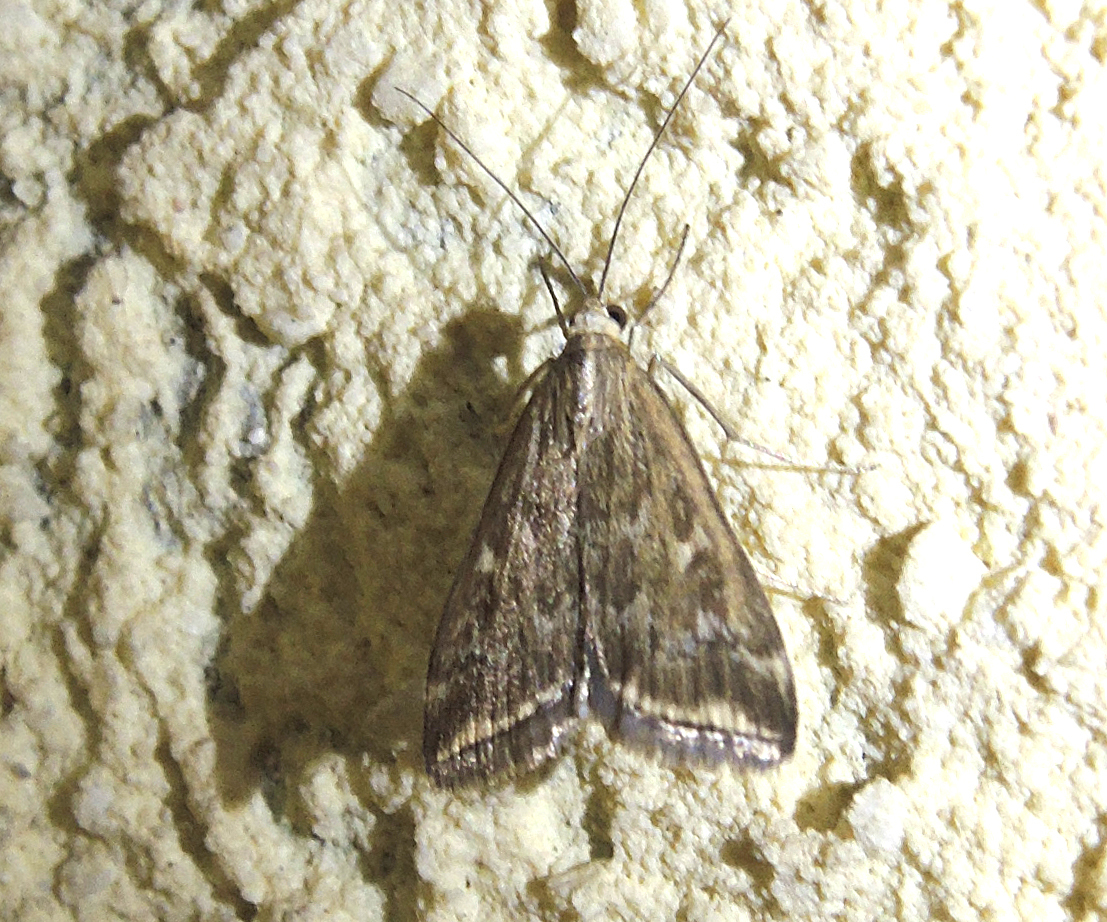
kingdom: Animalia
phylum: Arthropoda
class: Insecta
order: Lepidoptera
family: Crambidae
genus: Loxostege
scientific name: Loxostege sticticalis
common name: Crambid moth
